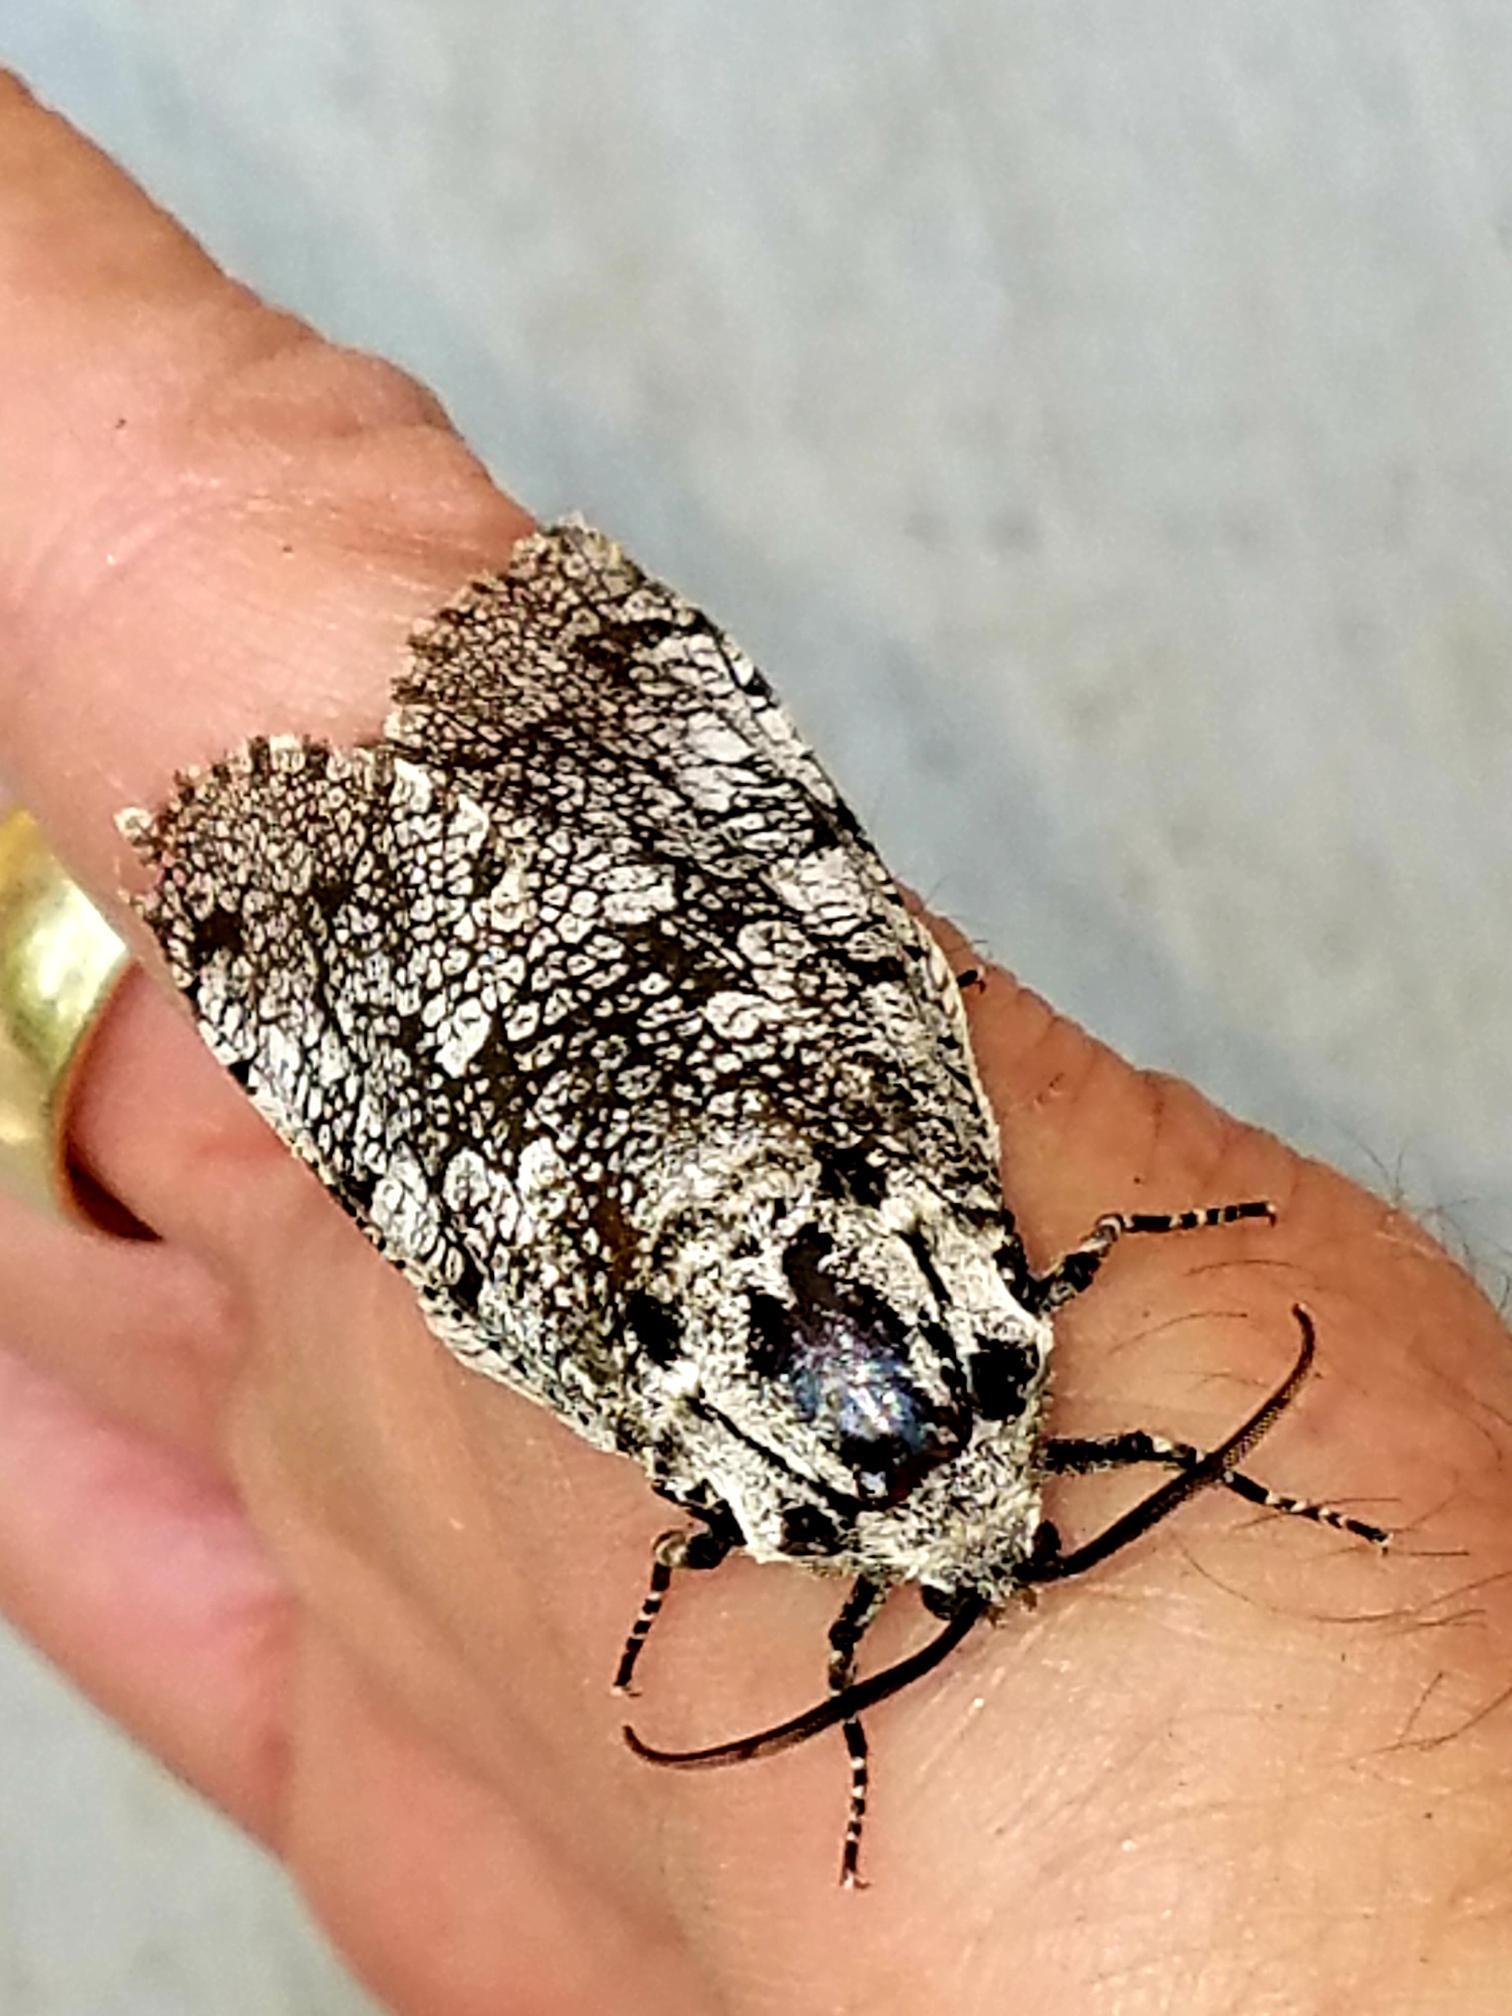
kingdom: Animalia
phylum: Arthropoda
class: Insecta
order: Lepidoptera
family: Cossidae
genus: Prionoxystus
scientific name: Prionoxystus robiniae
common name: Carpenterworm
